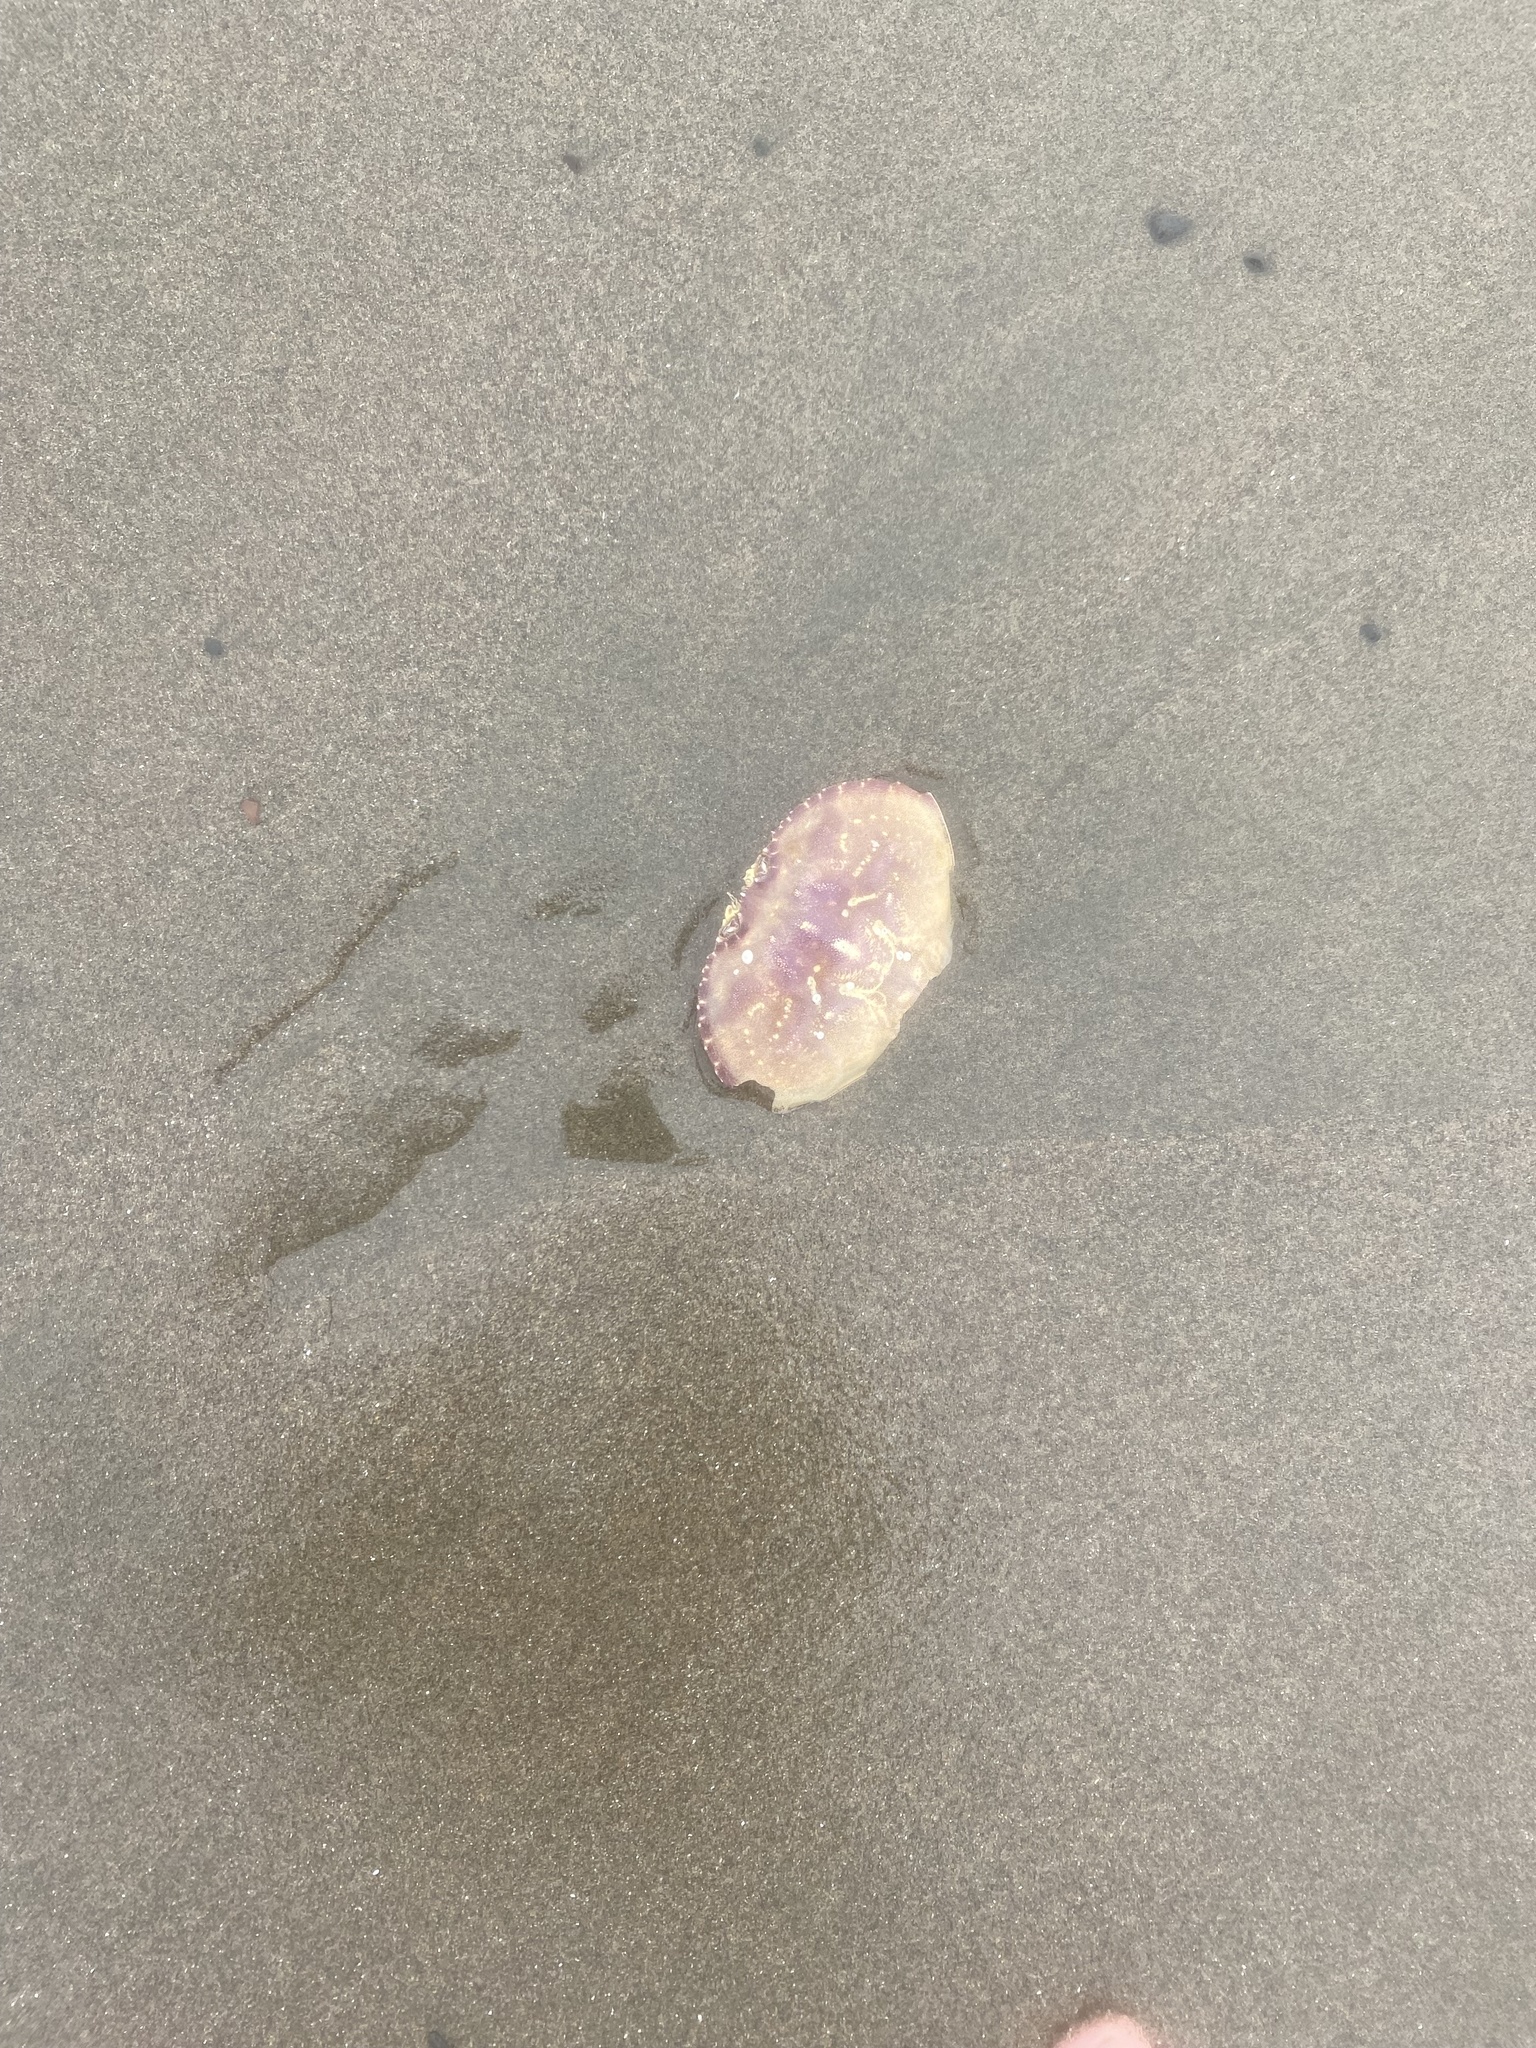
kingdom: Animalia
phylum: Arthropoda
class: Malacostraca
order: Decapoda
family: Cancridae
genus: Metacarcinus
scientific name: Metacarcinus magister
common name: Californian crab
